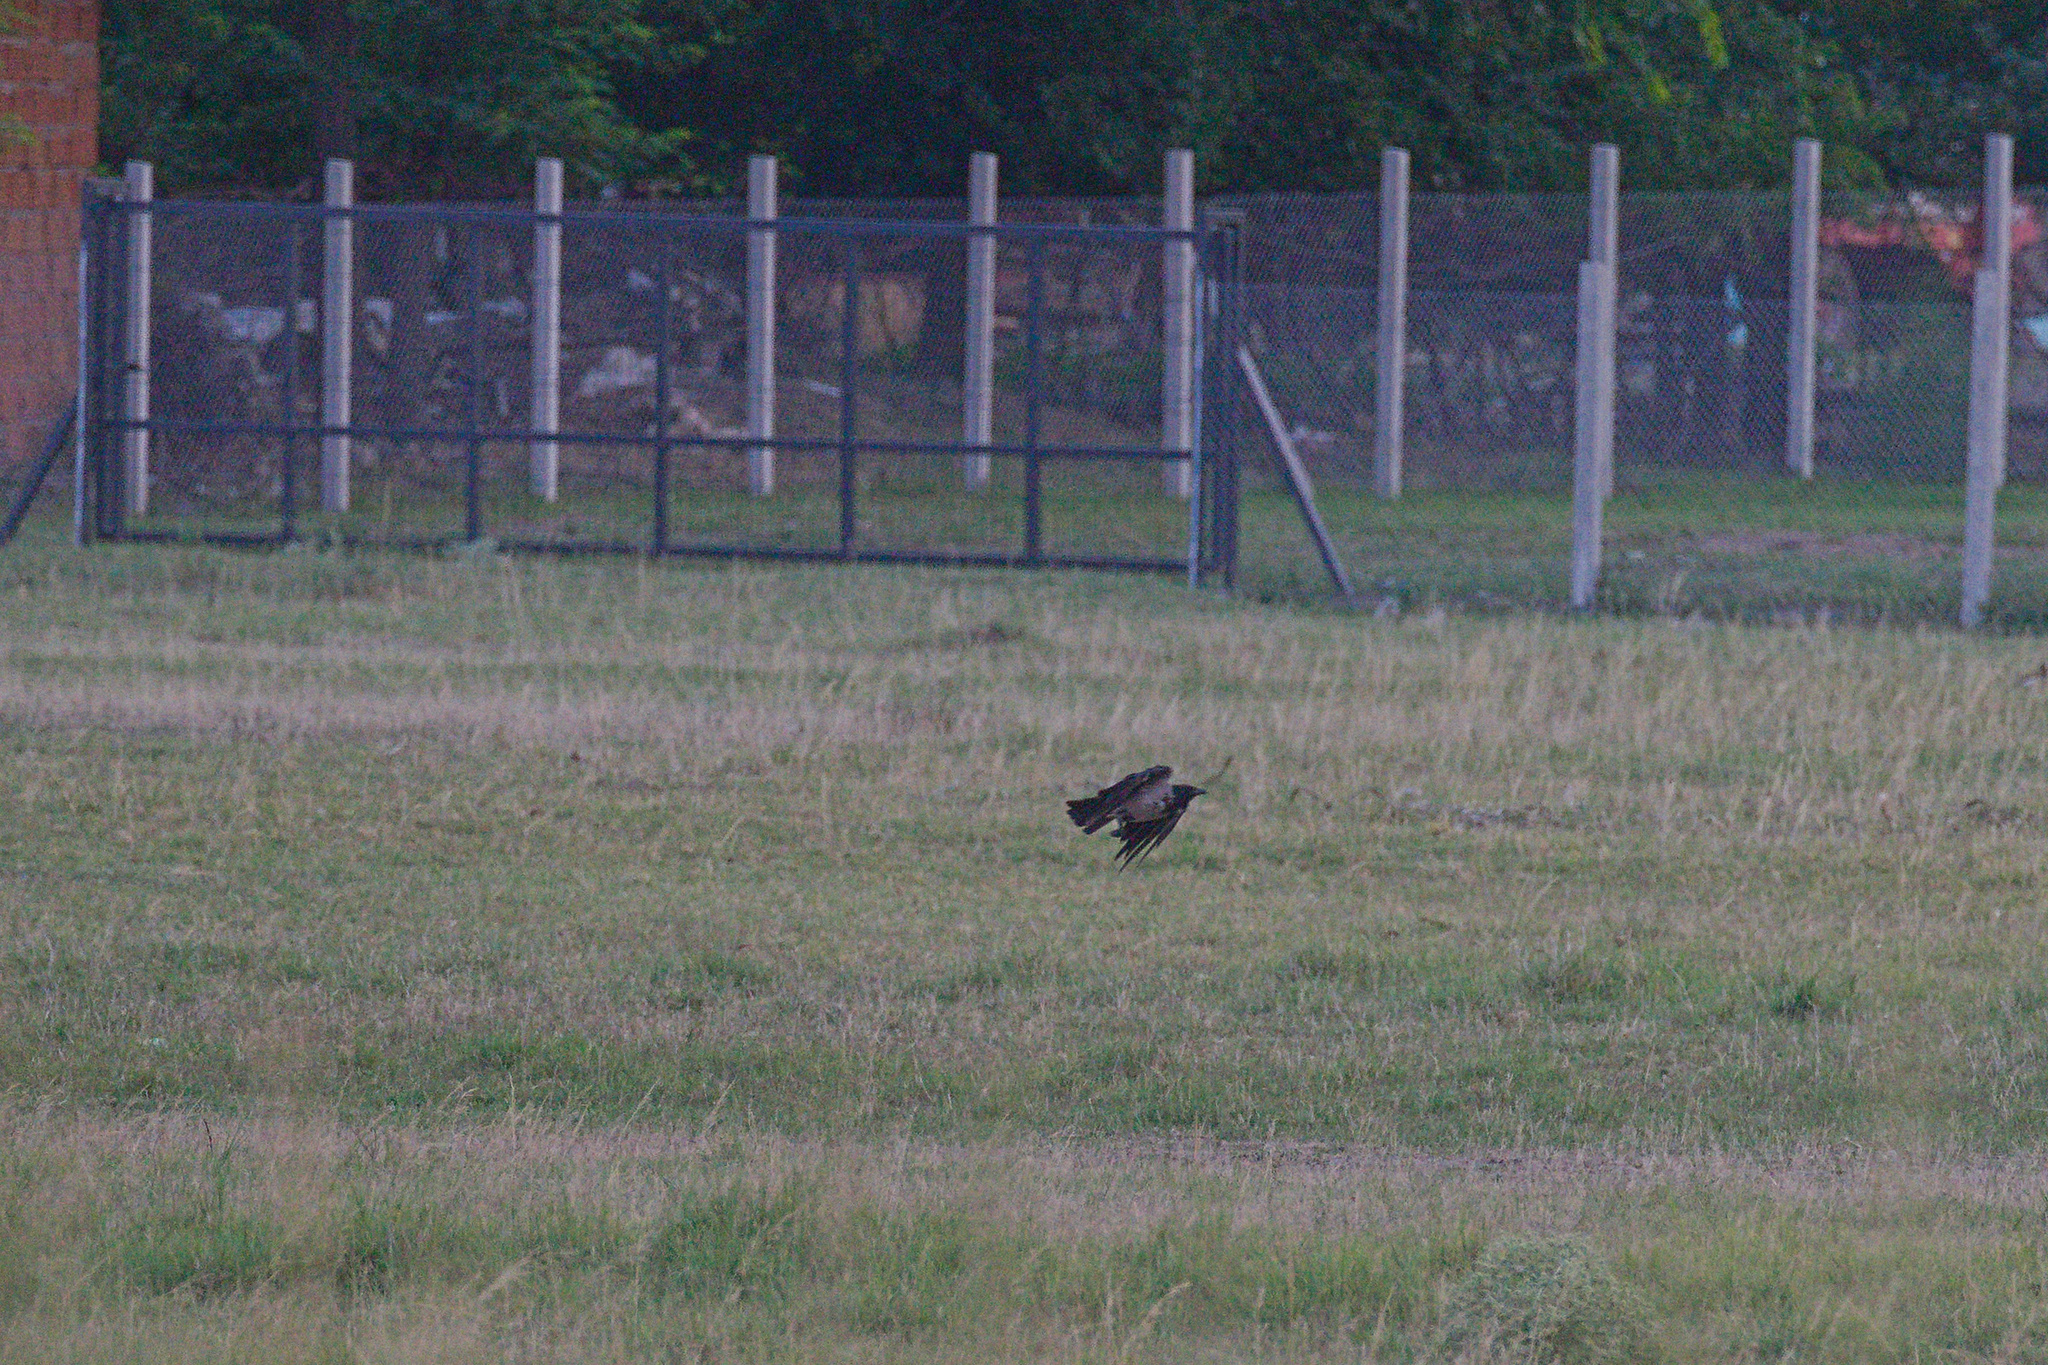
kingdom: Animalia
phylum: Chordata
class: Aves
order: Passeriformes
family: Corvidae
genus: Corvus
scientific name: Corvus cornix
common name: Hooded crow
